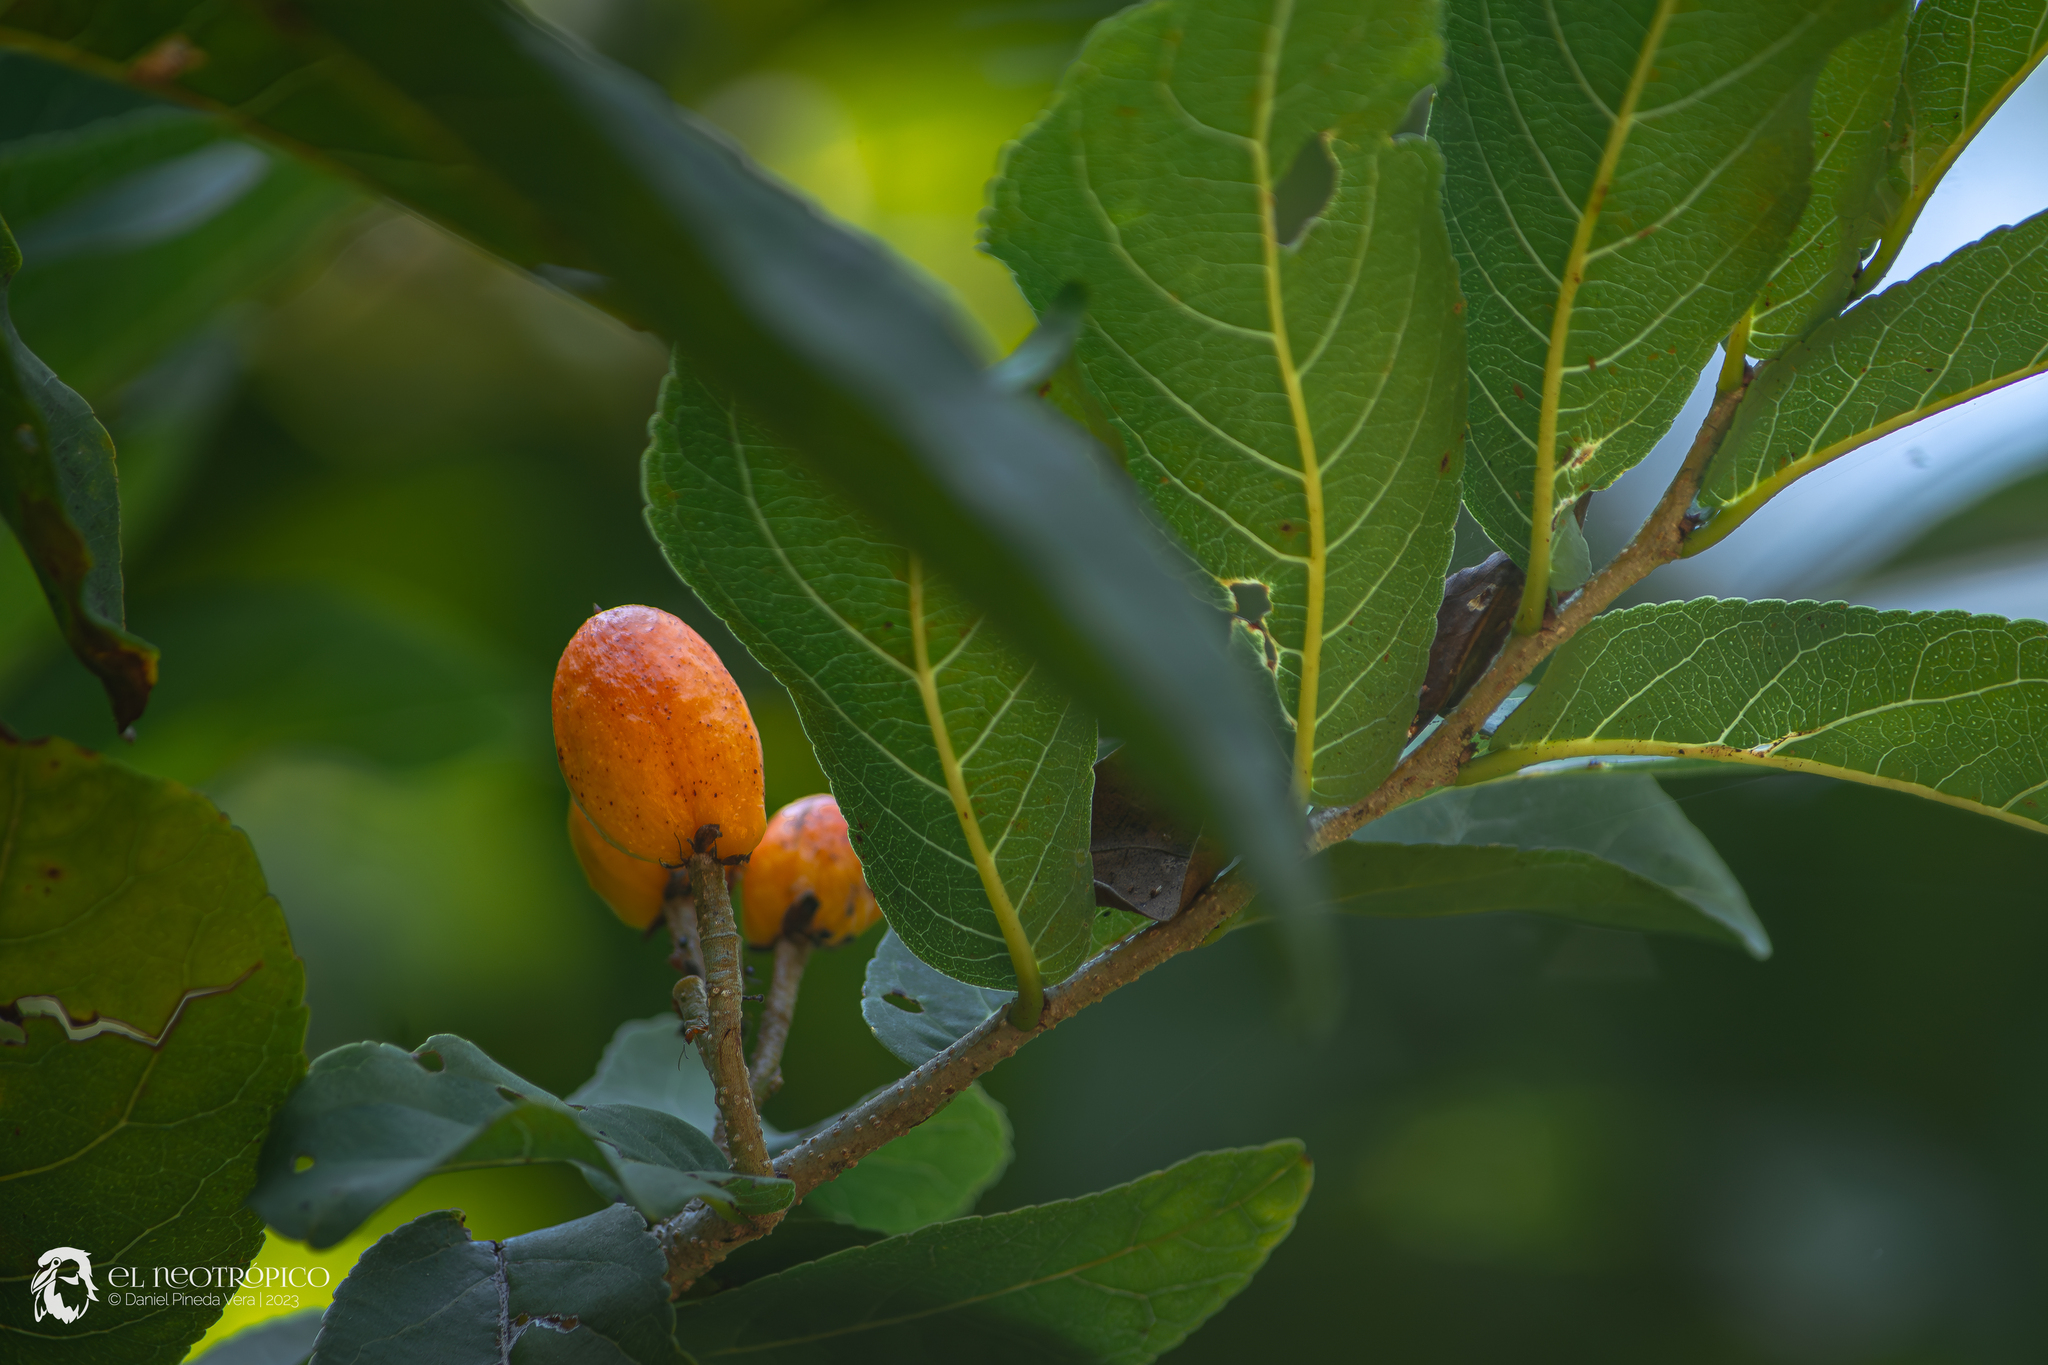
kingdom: Plantae
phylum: Tracheophyta
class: Magnoliopsida
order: Malpighiales
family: Salicaceae
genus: Casearia
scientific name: Casearia corymbosa
